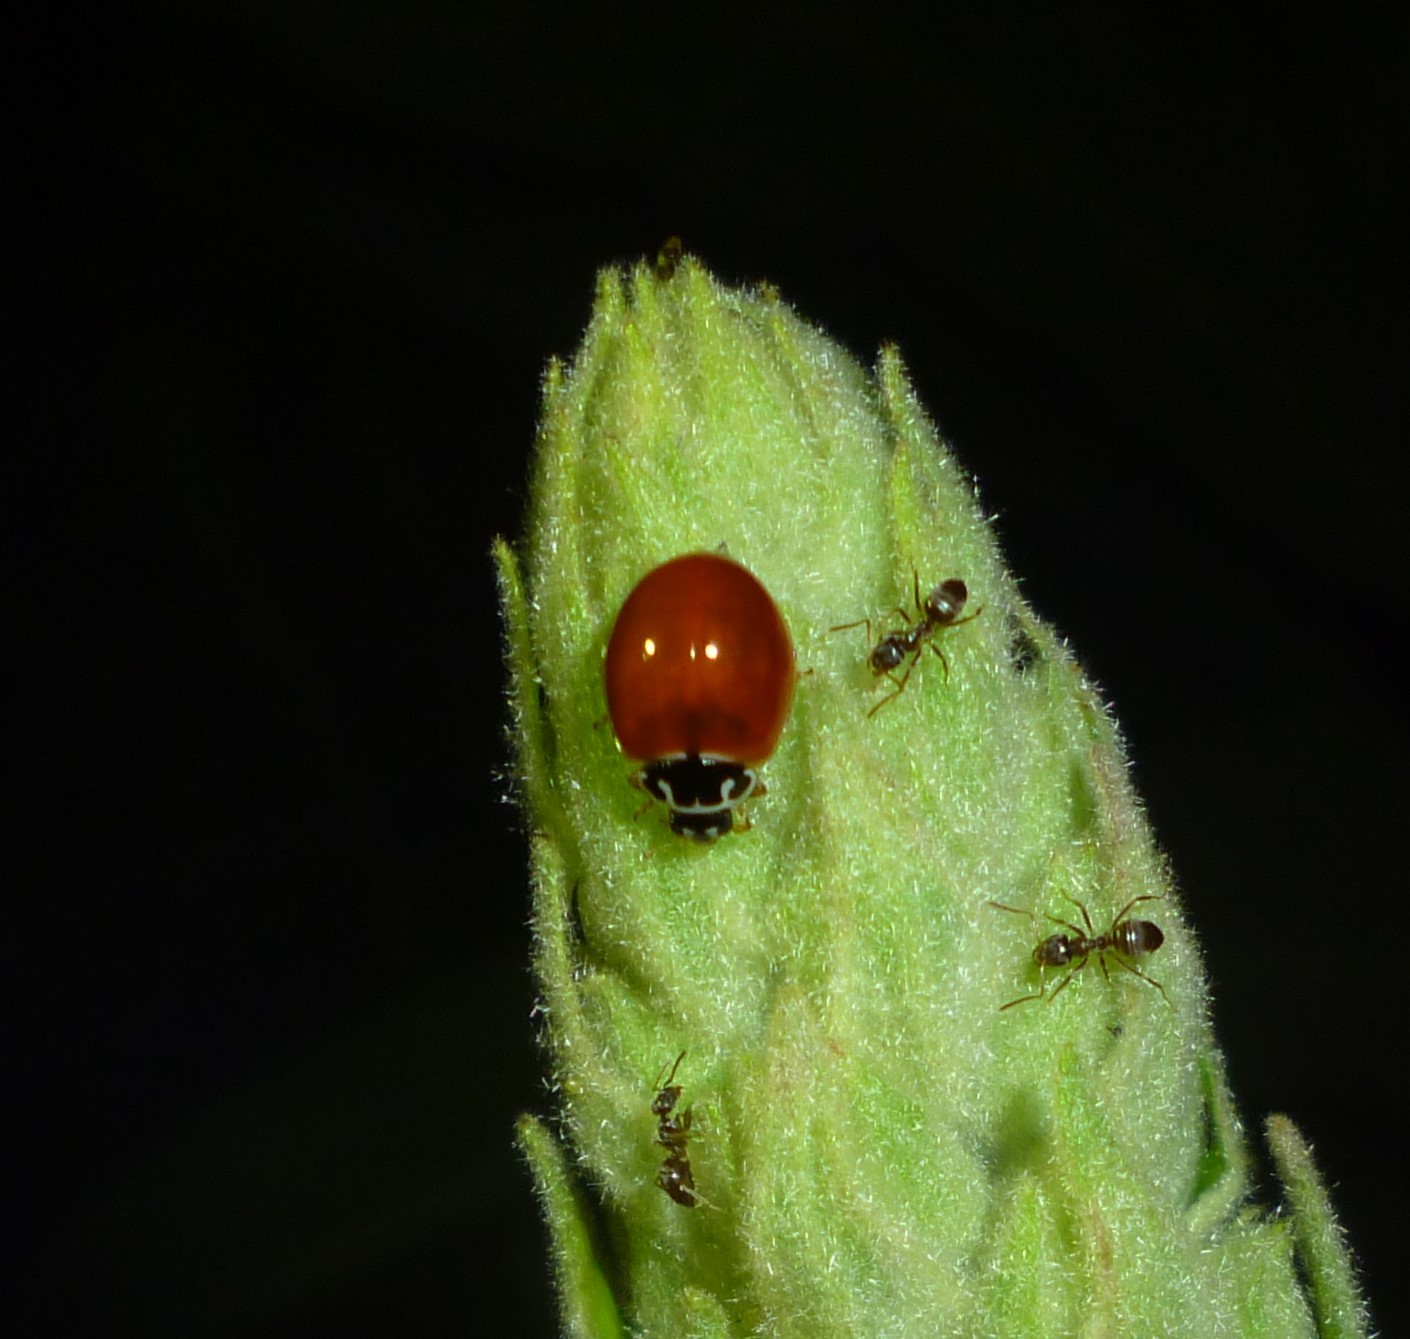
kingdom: Animalia
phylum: Arthropoda
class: Insecta
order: Coleoptera
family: Coccinellidae
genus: Cycloneda
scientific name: Cycloneda munda
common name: Polished lady beetle
